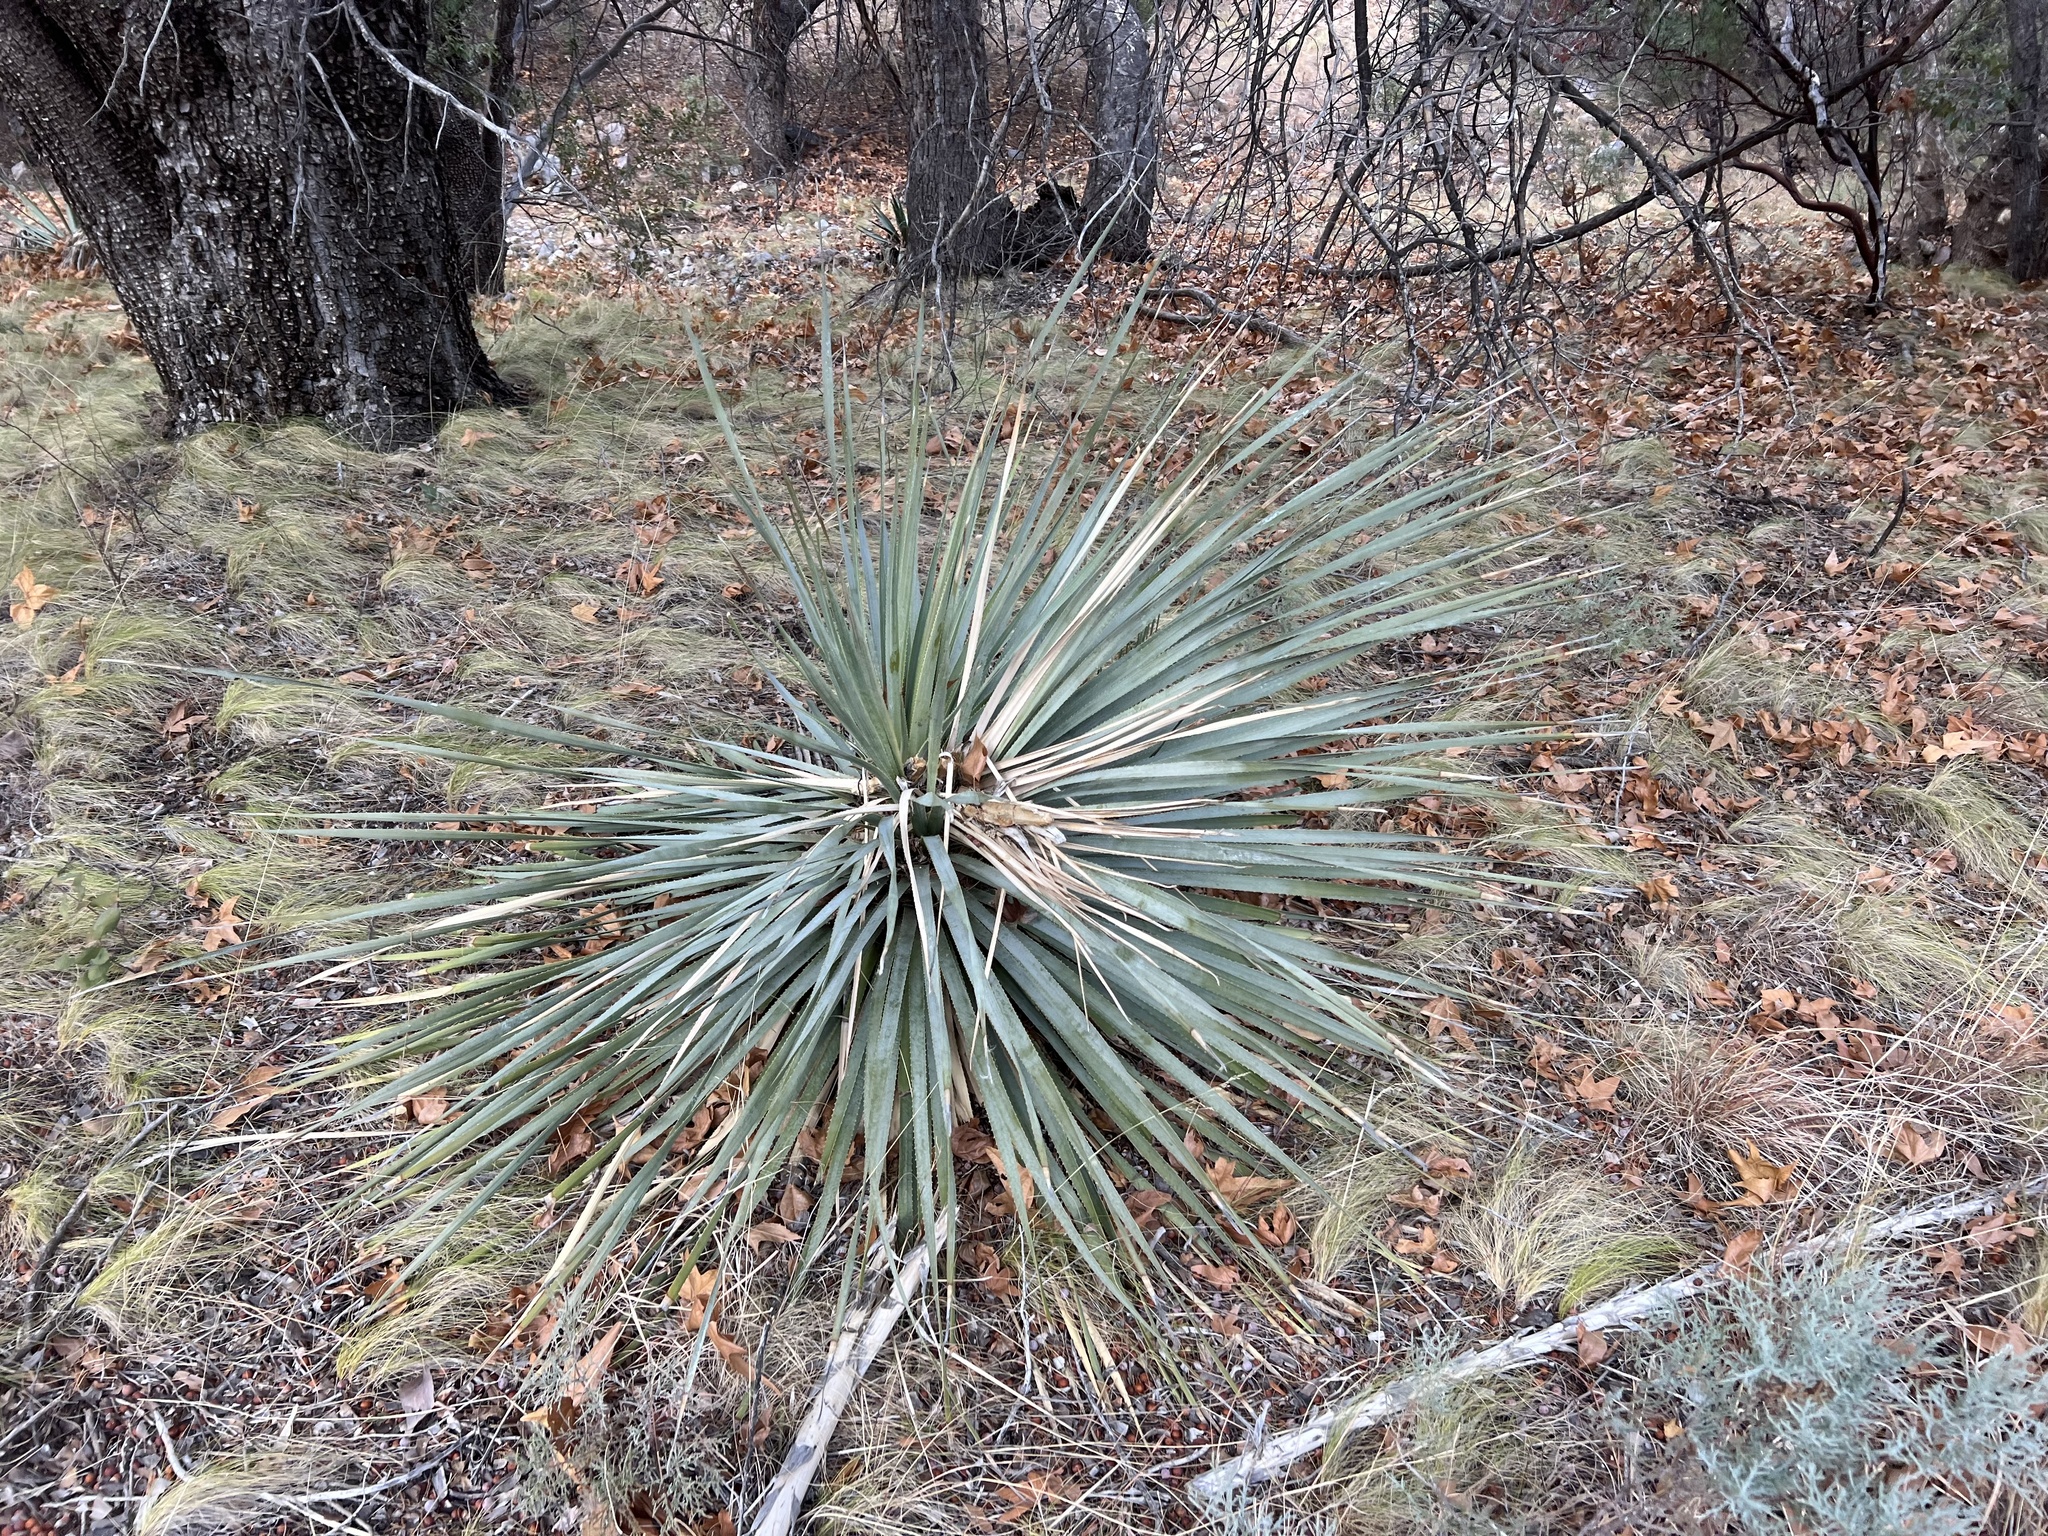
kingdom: Plantae
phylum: Tracheophyta
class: Liliopsida
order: Asparagales
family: Asparagaceae
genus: Dasylirion
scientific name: Dasylirion wheeleri
